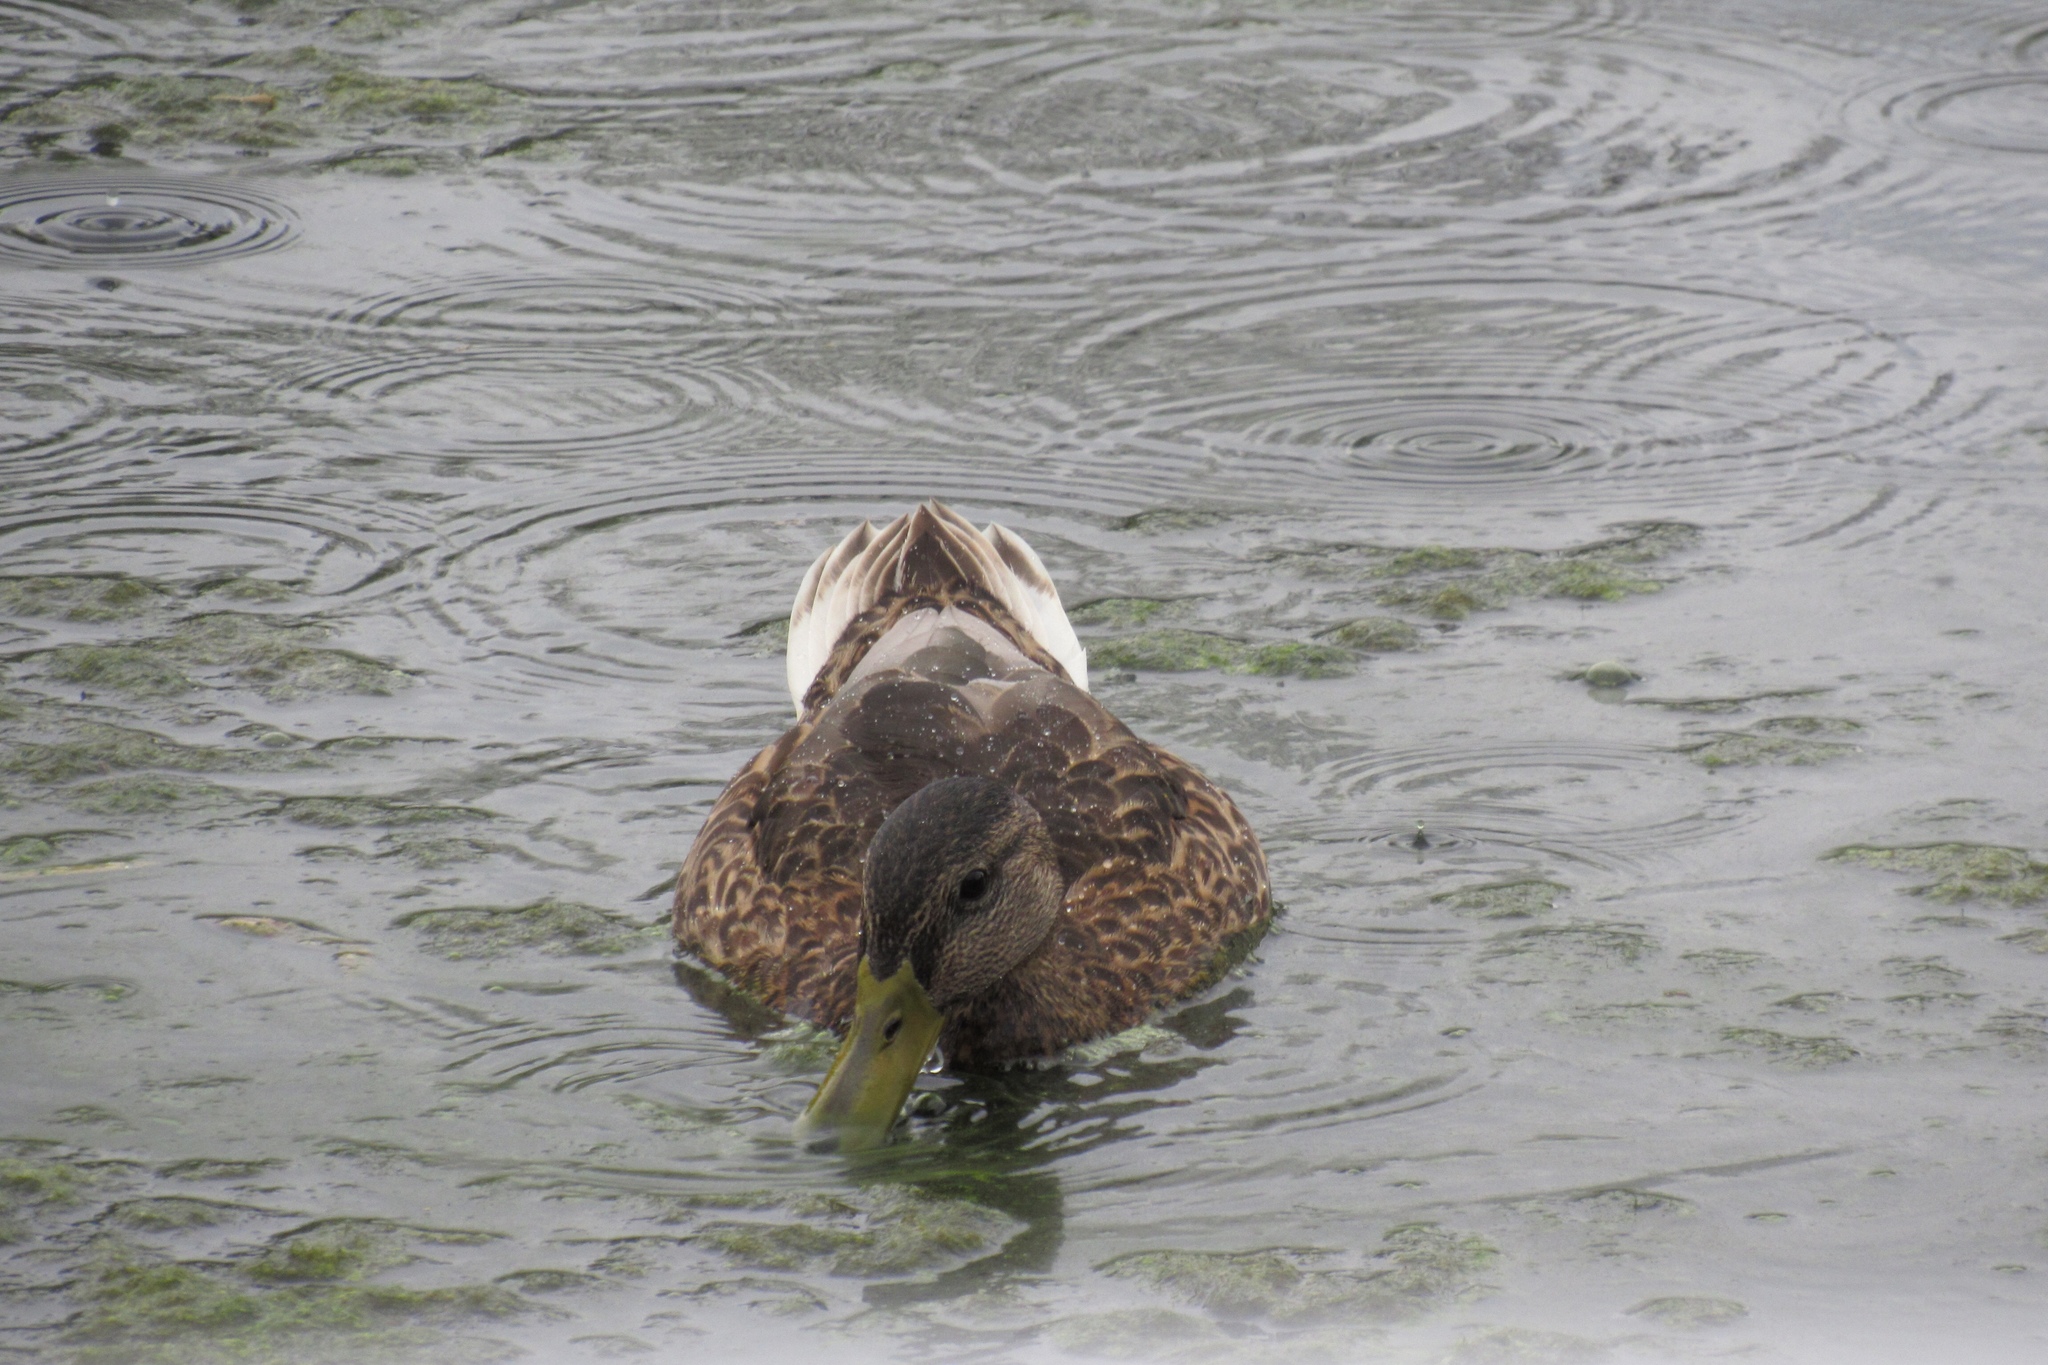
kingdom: Animalia
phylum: Chordata
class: Aves
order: Anseriformes
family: Anatidae
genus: Anas
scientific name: Anas platyrhynchos
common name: Mallard
